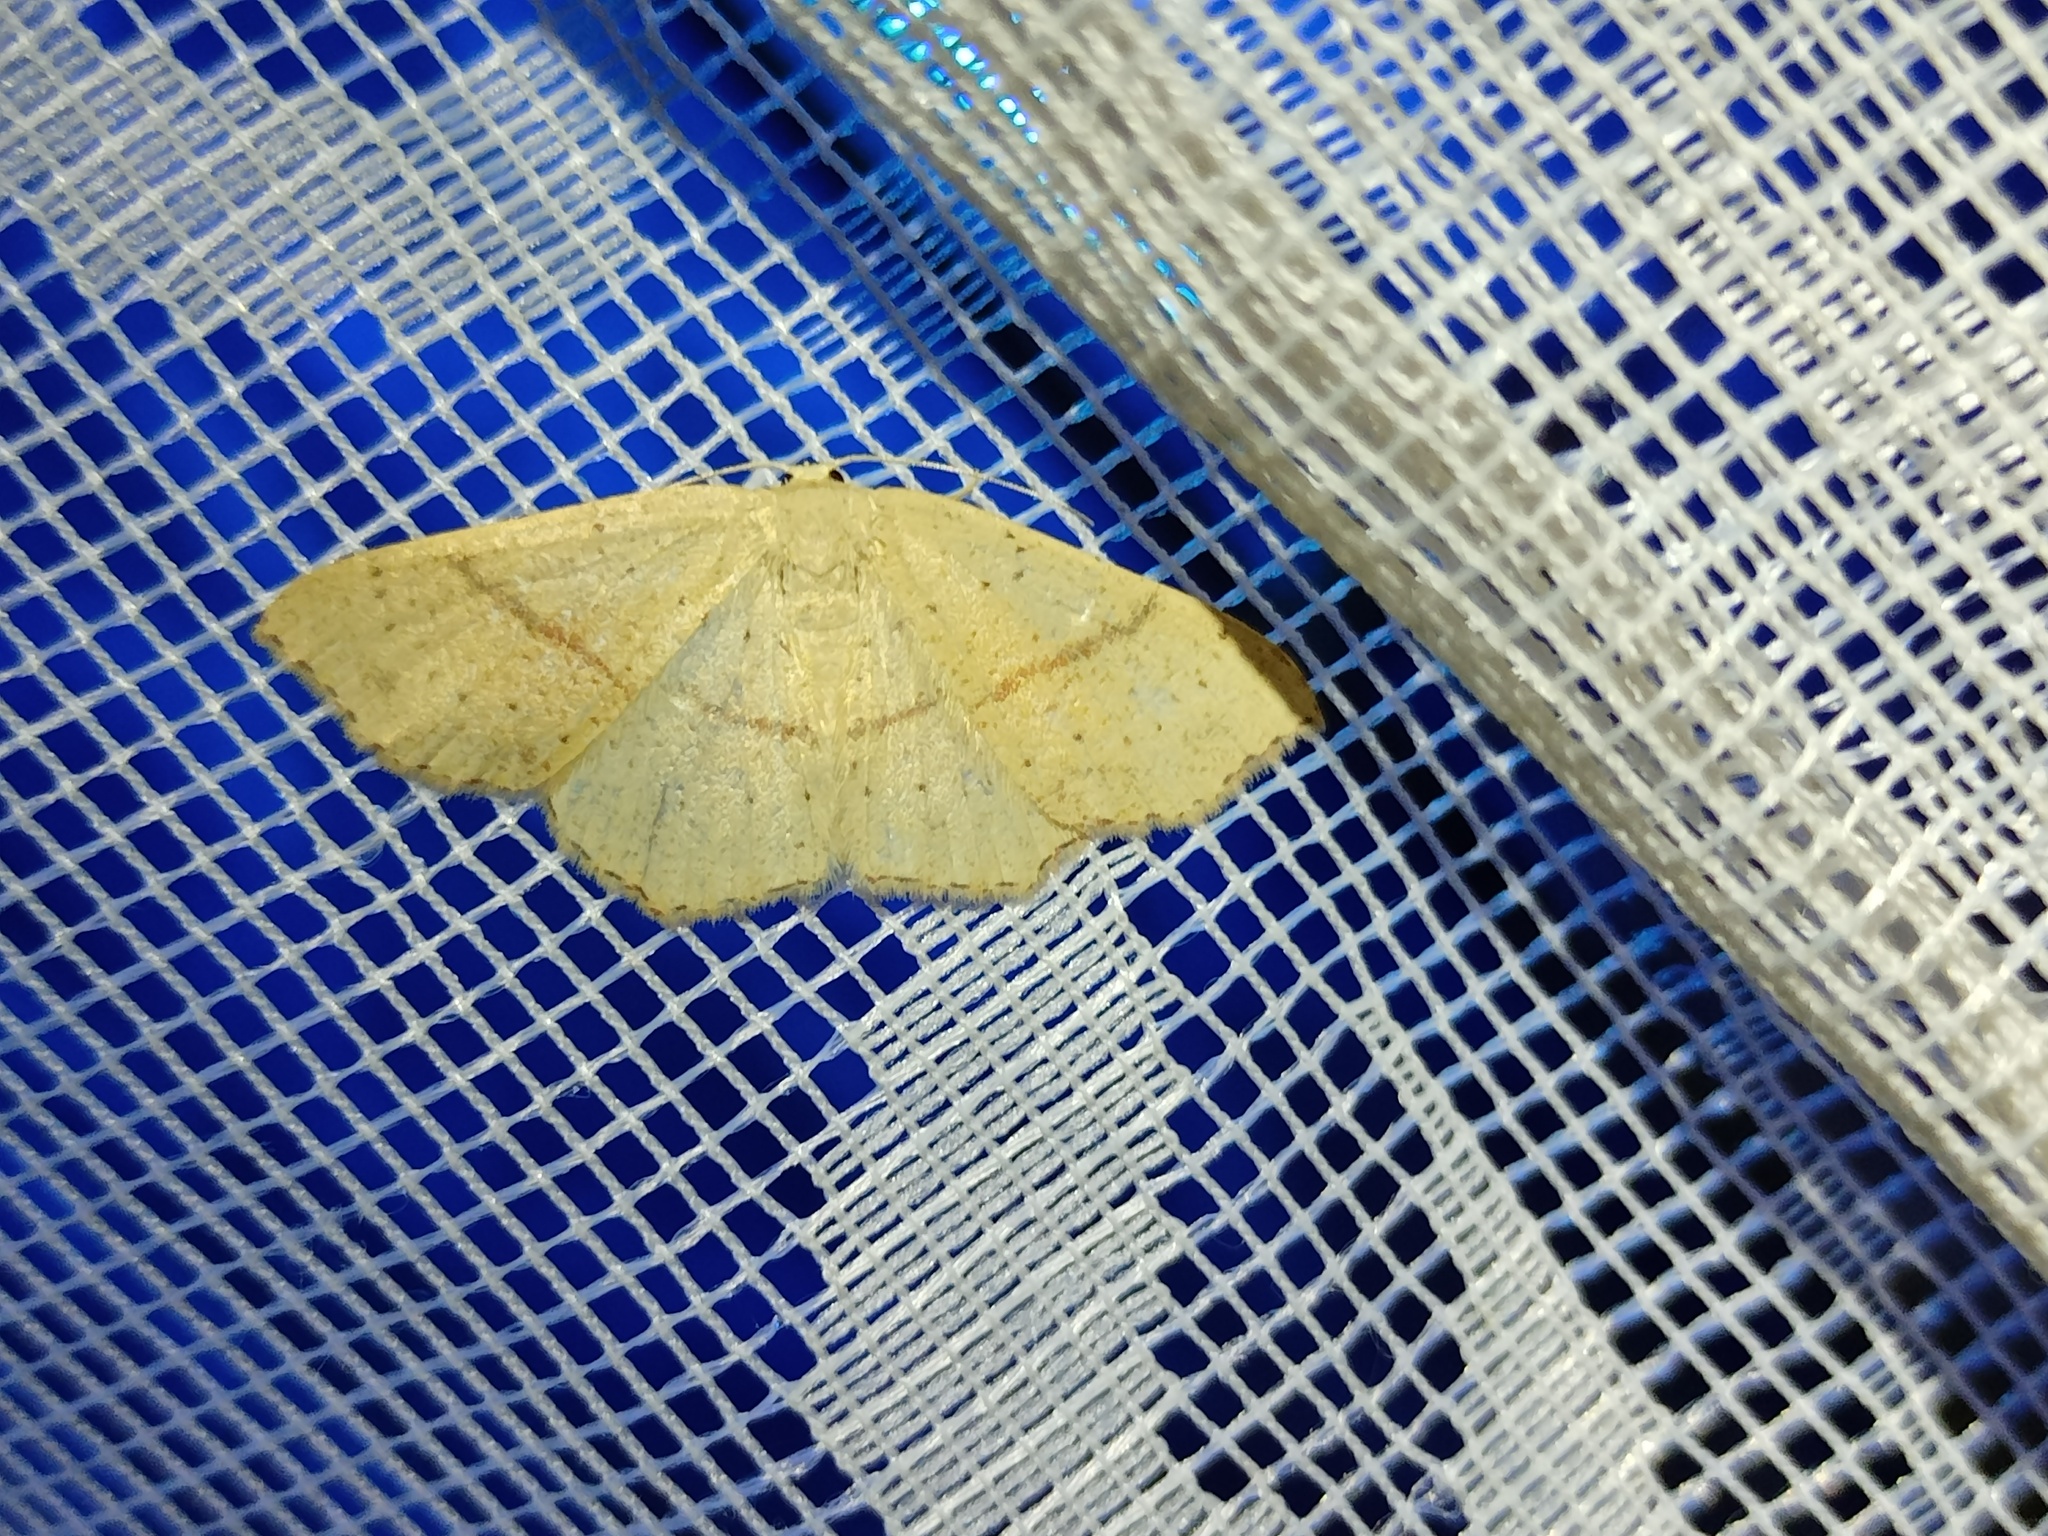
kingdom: Animalia
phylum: Arthropoda
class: Insecta
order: Lepidoptera
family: Geometridae
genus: Cyclophora
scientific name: Cyclophora punctaria
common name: Maiden's blush
